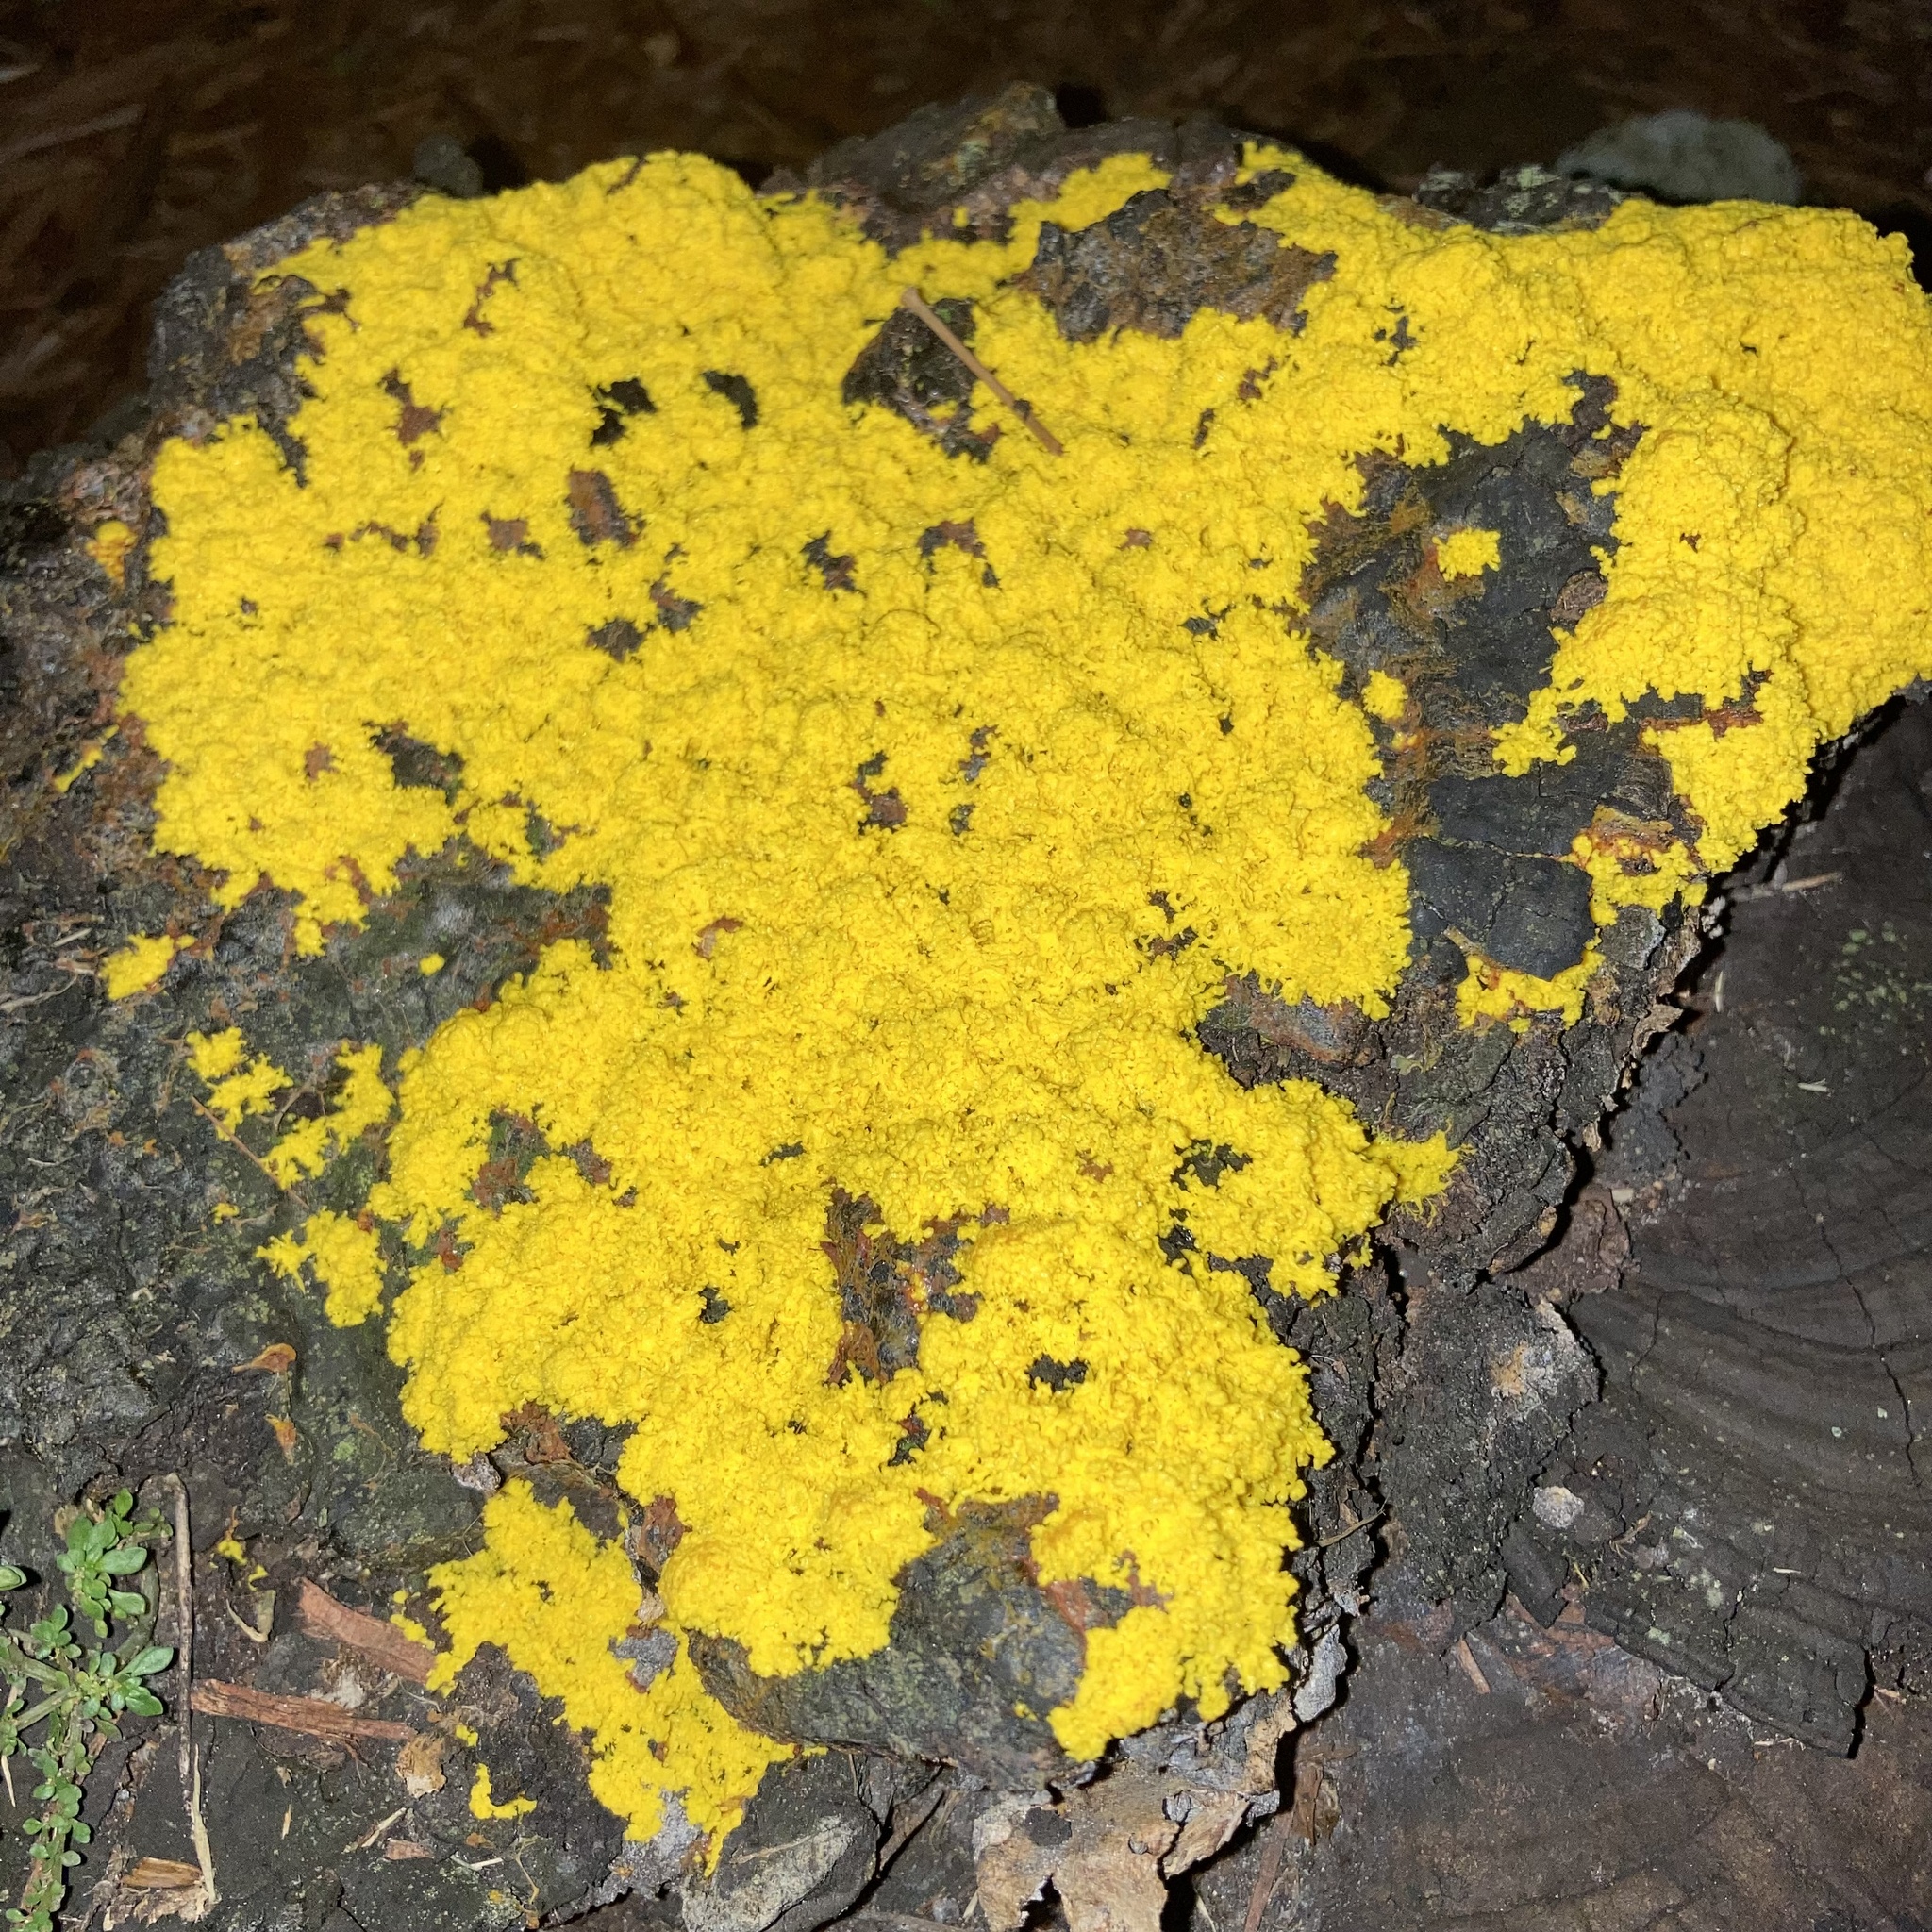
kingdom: Protozoa
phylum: Mycetozoa
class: Myxomycetes
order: Physarales
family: Physaraceae
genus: Fuligo
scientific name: Fuligo septica
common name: Dog vomit slime mold
